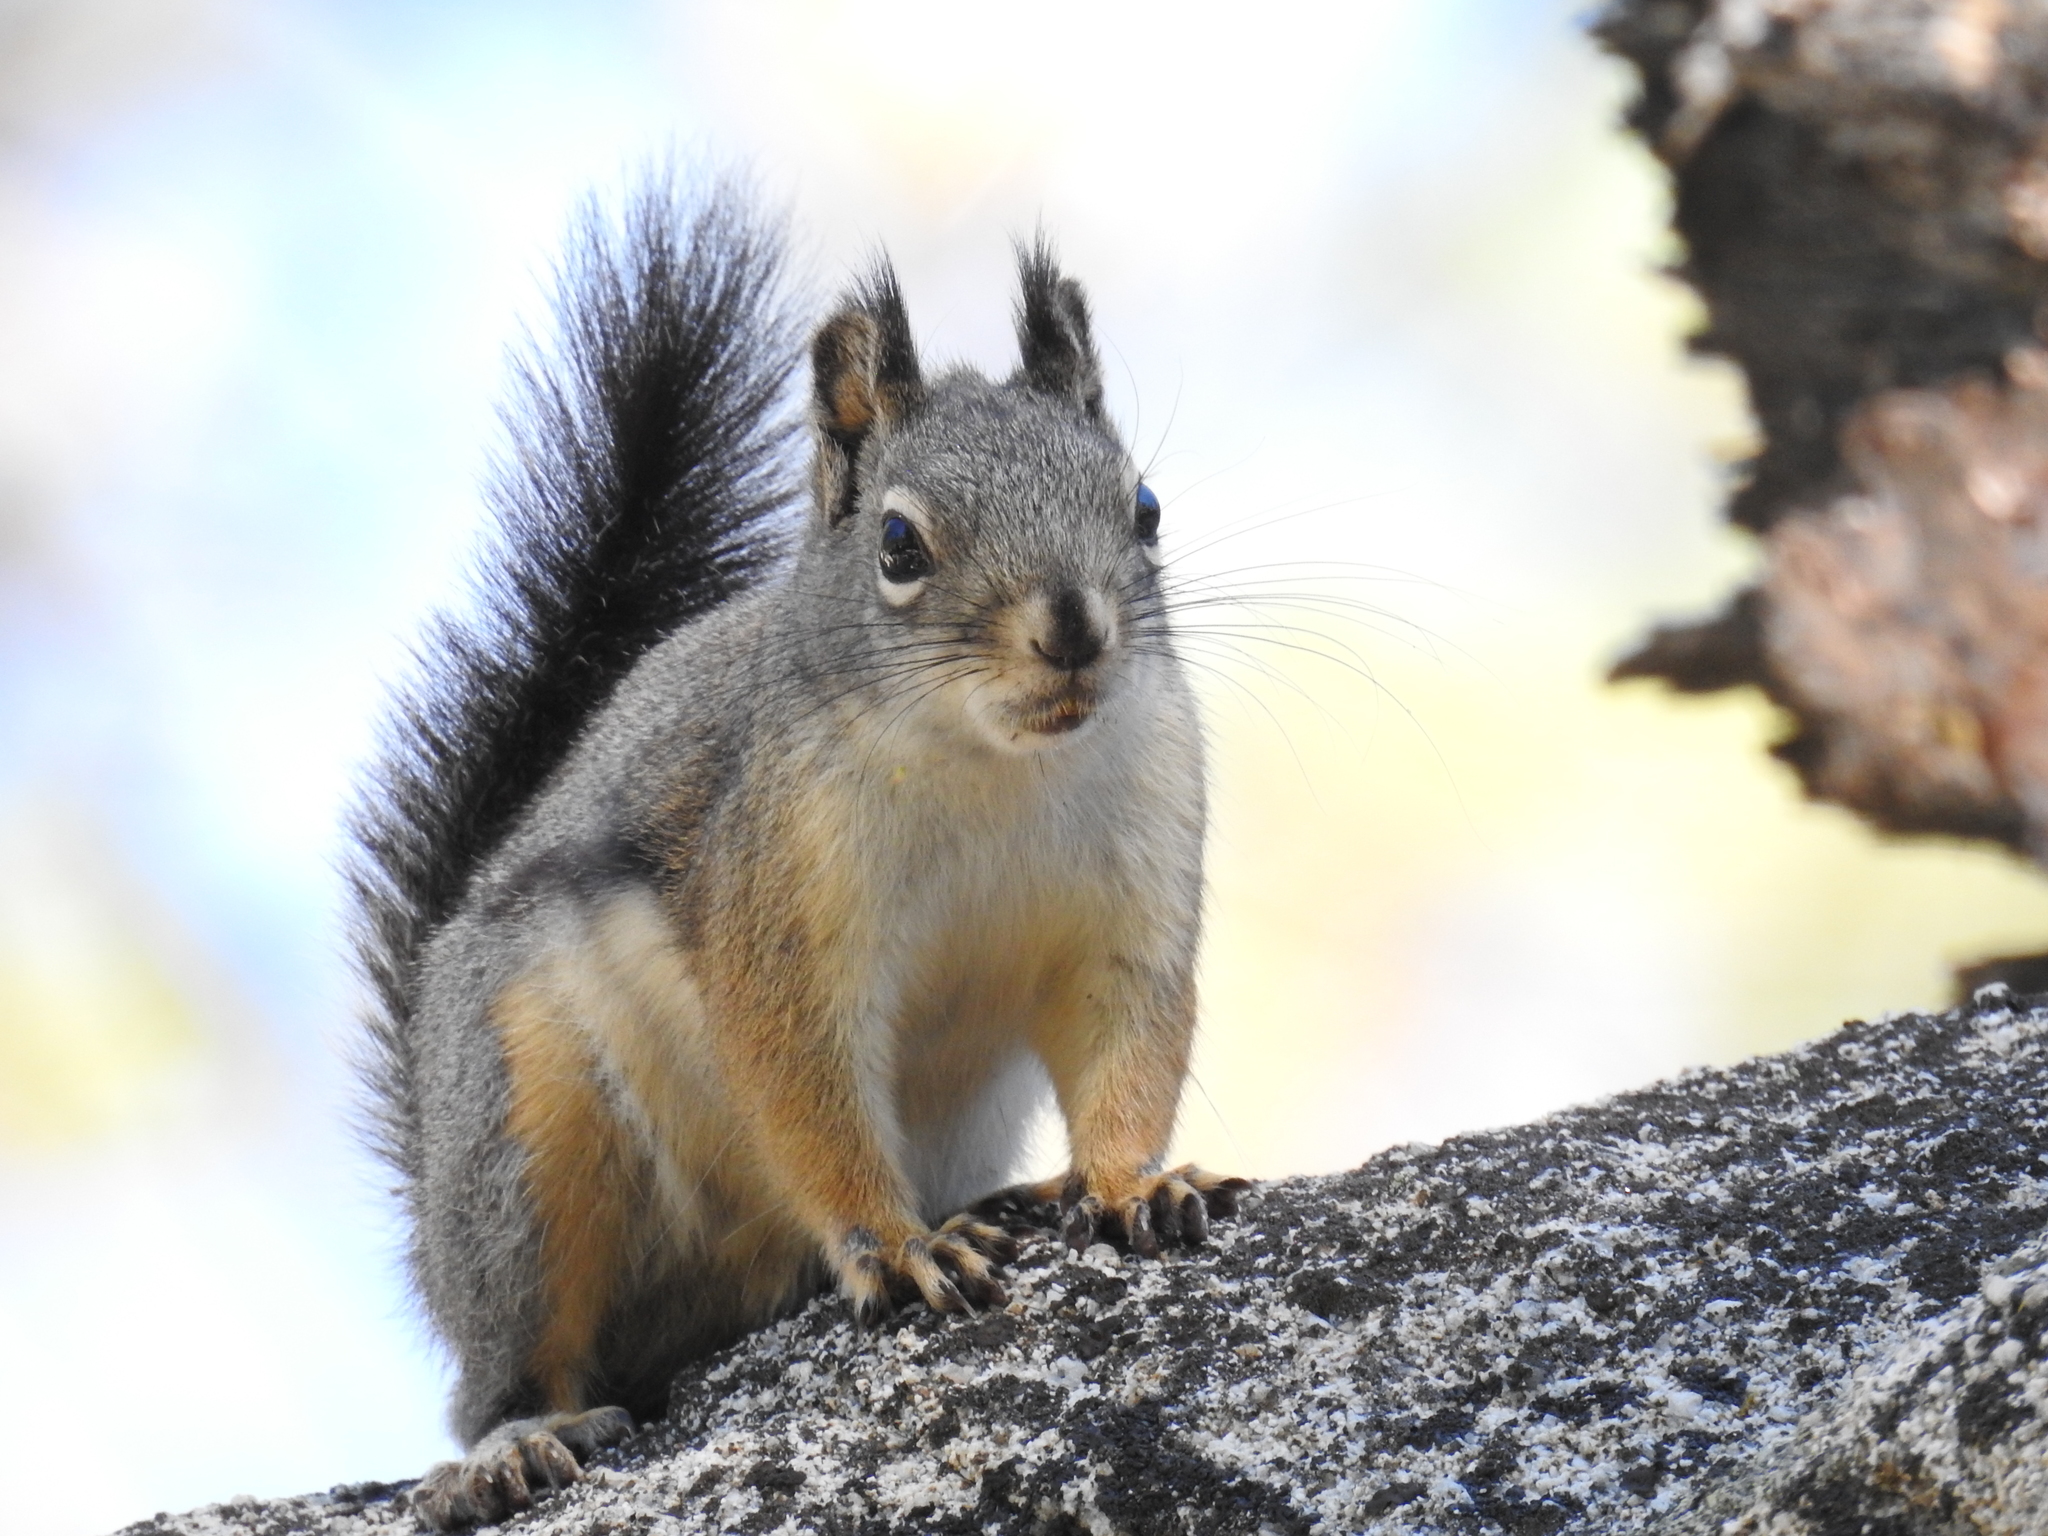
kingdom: Animalia
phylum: Chordata
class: Mammalia
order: Rodentia
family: Sciuridae
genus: Tamiasciurus
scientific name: Tamiasciurus douglasii
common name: Douglas's squirrel
